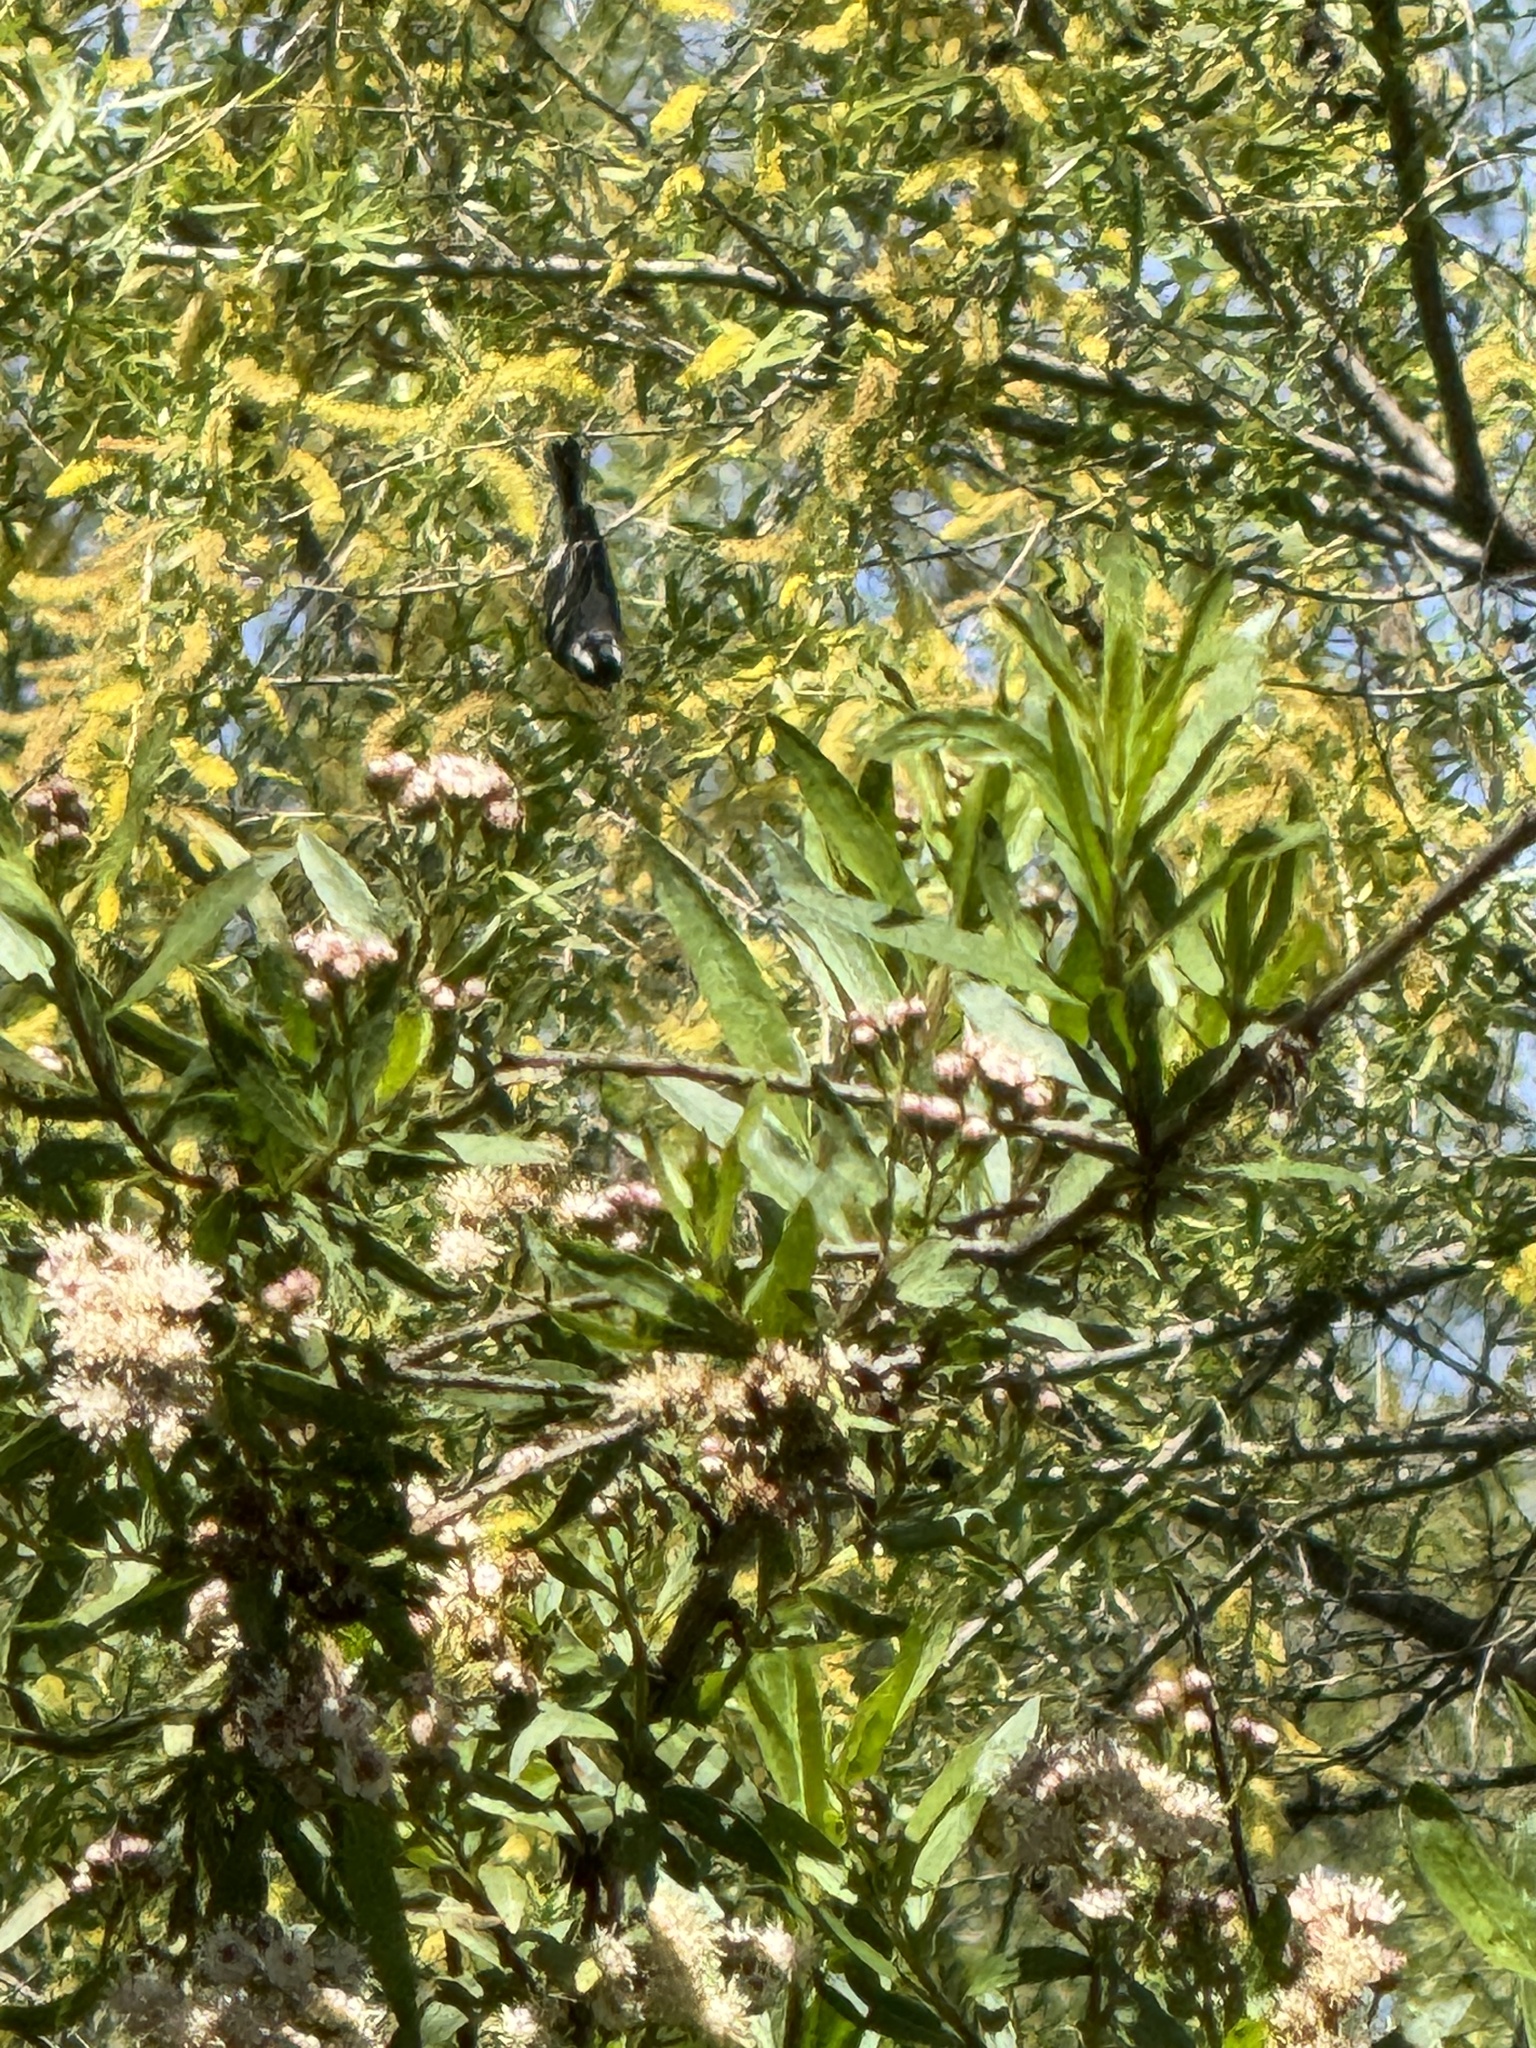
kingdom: Animalia
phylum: Chordata
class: Aves
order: Passeriformes
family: Parulidae
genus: Setophaga
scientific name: Setophaga nigrescens
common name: Black-throated gray warbler
